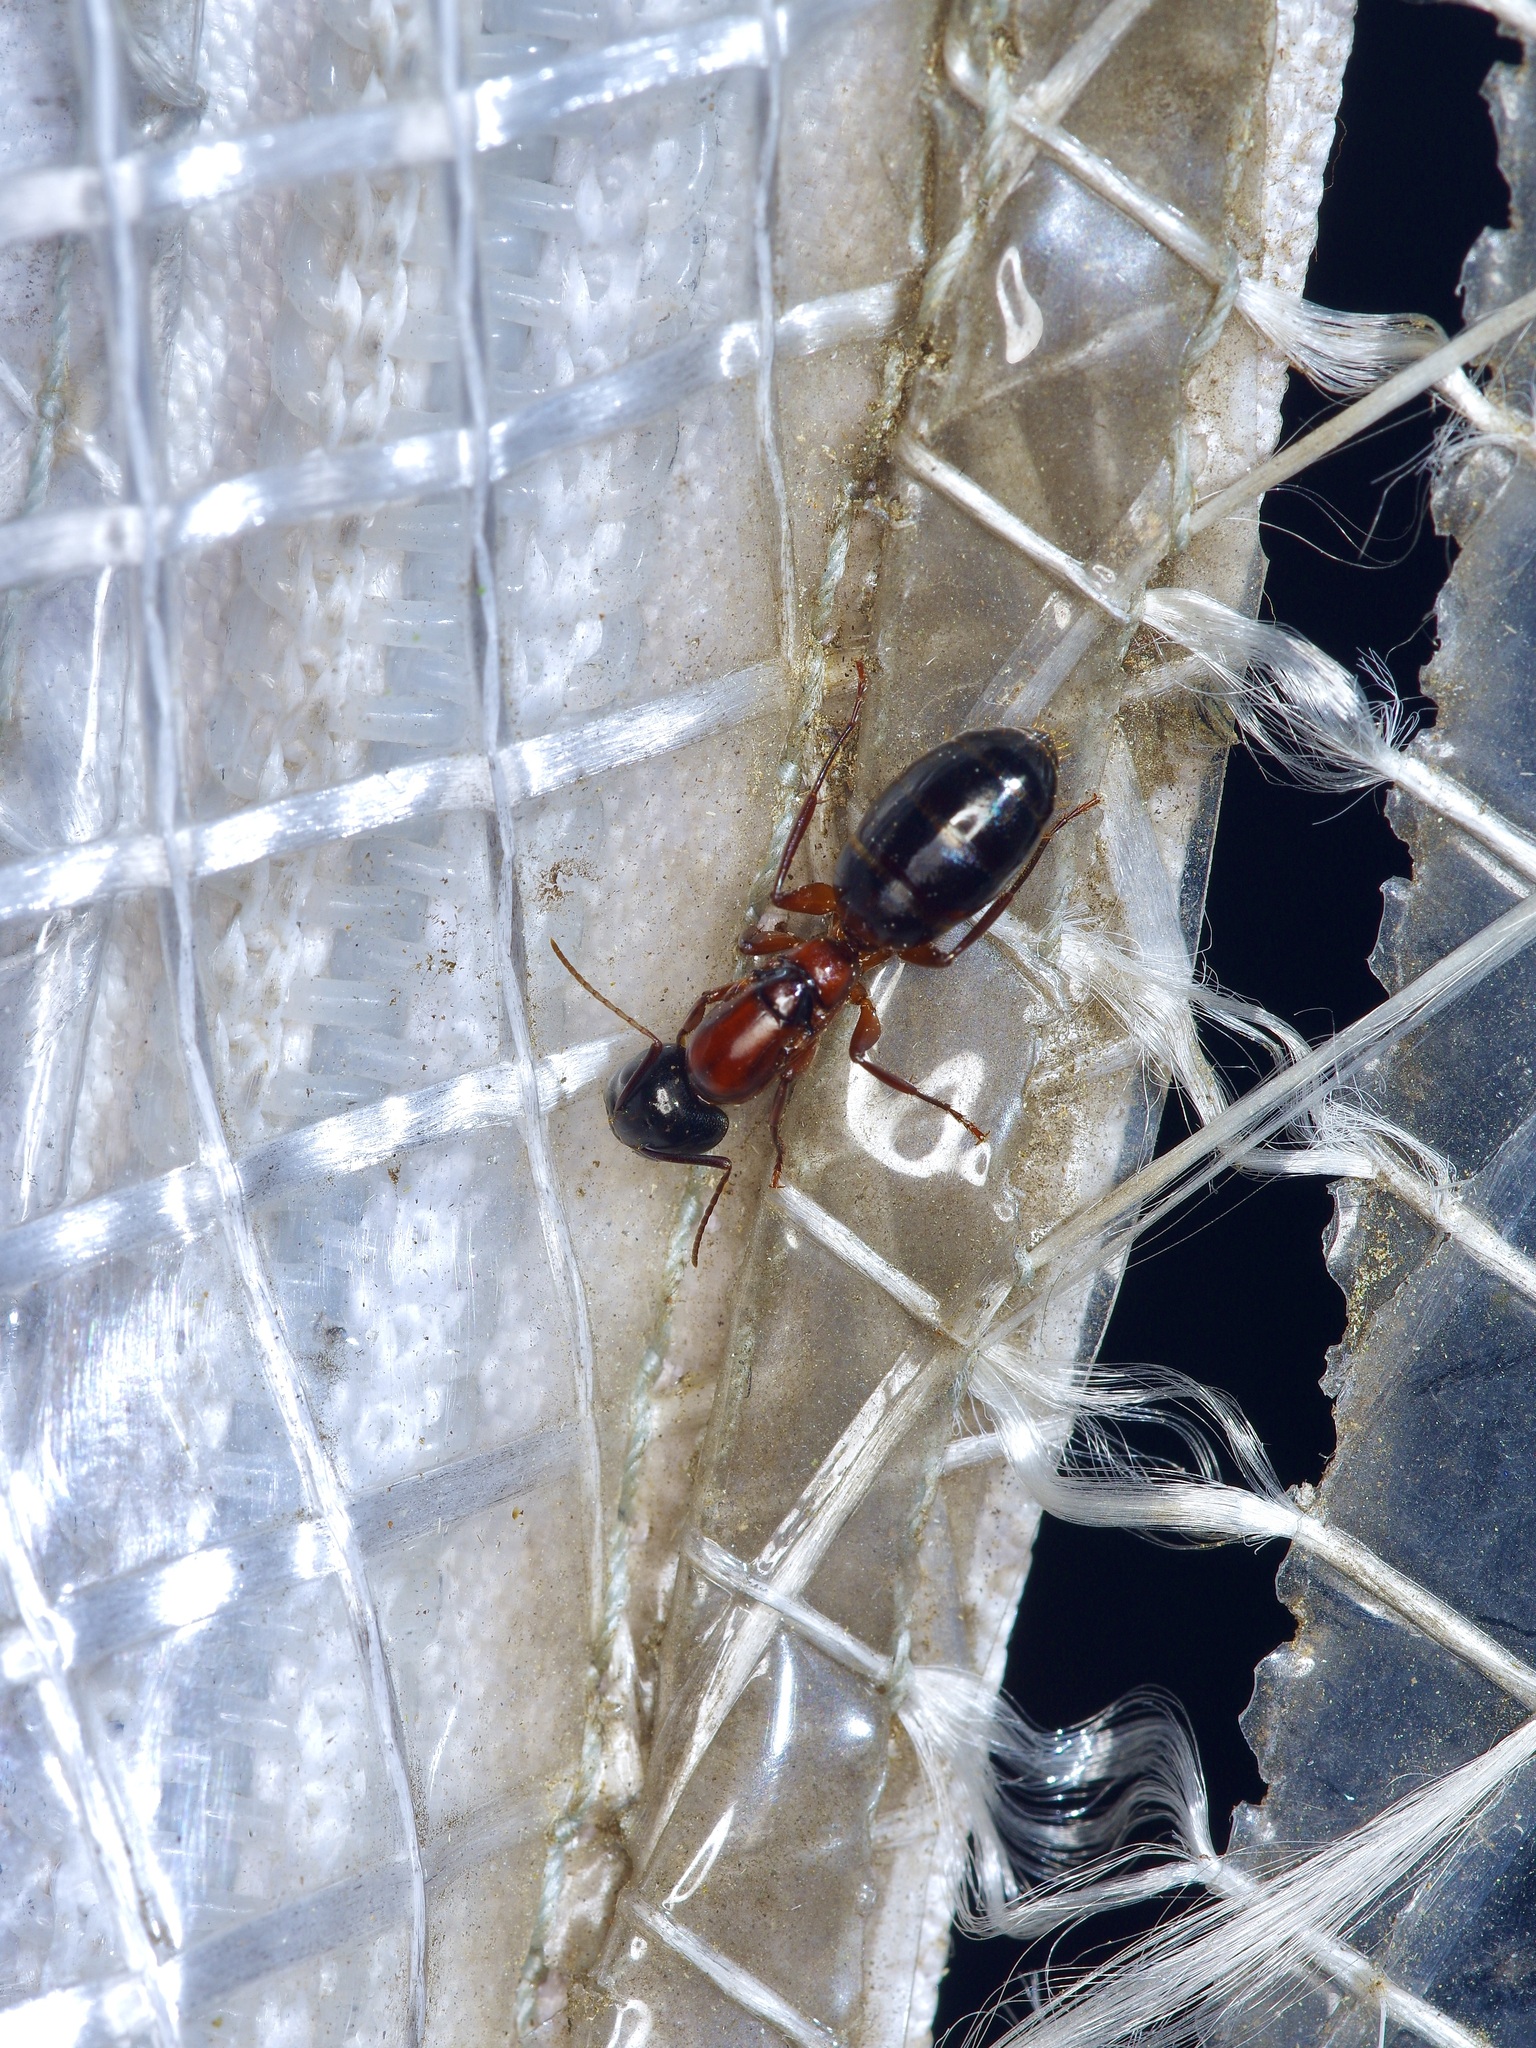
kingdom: Animalia
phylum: Arthropoda
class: Insecta
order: Hymenoptera
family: Formicidae
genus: Camponotus
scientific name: Camponotus texanus
